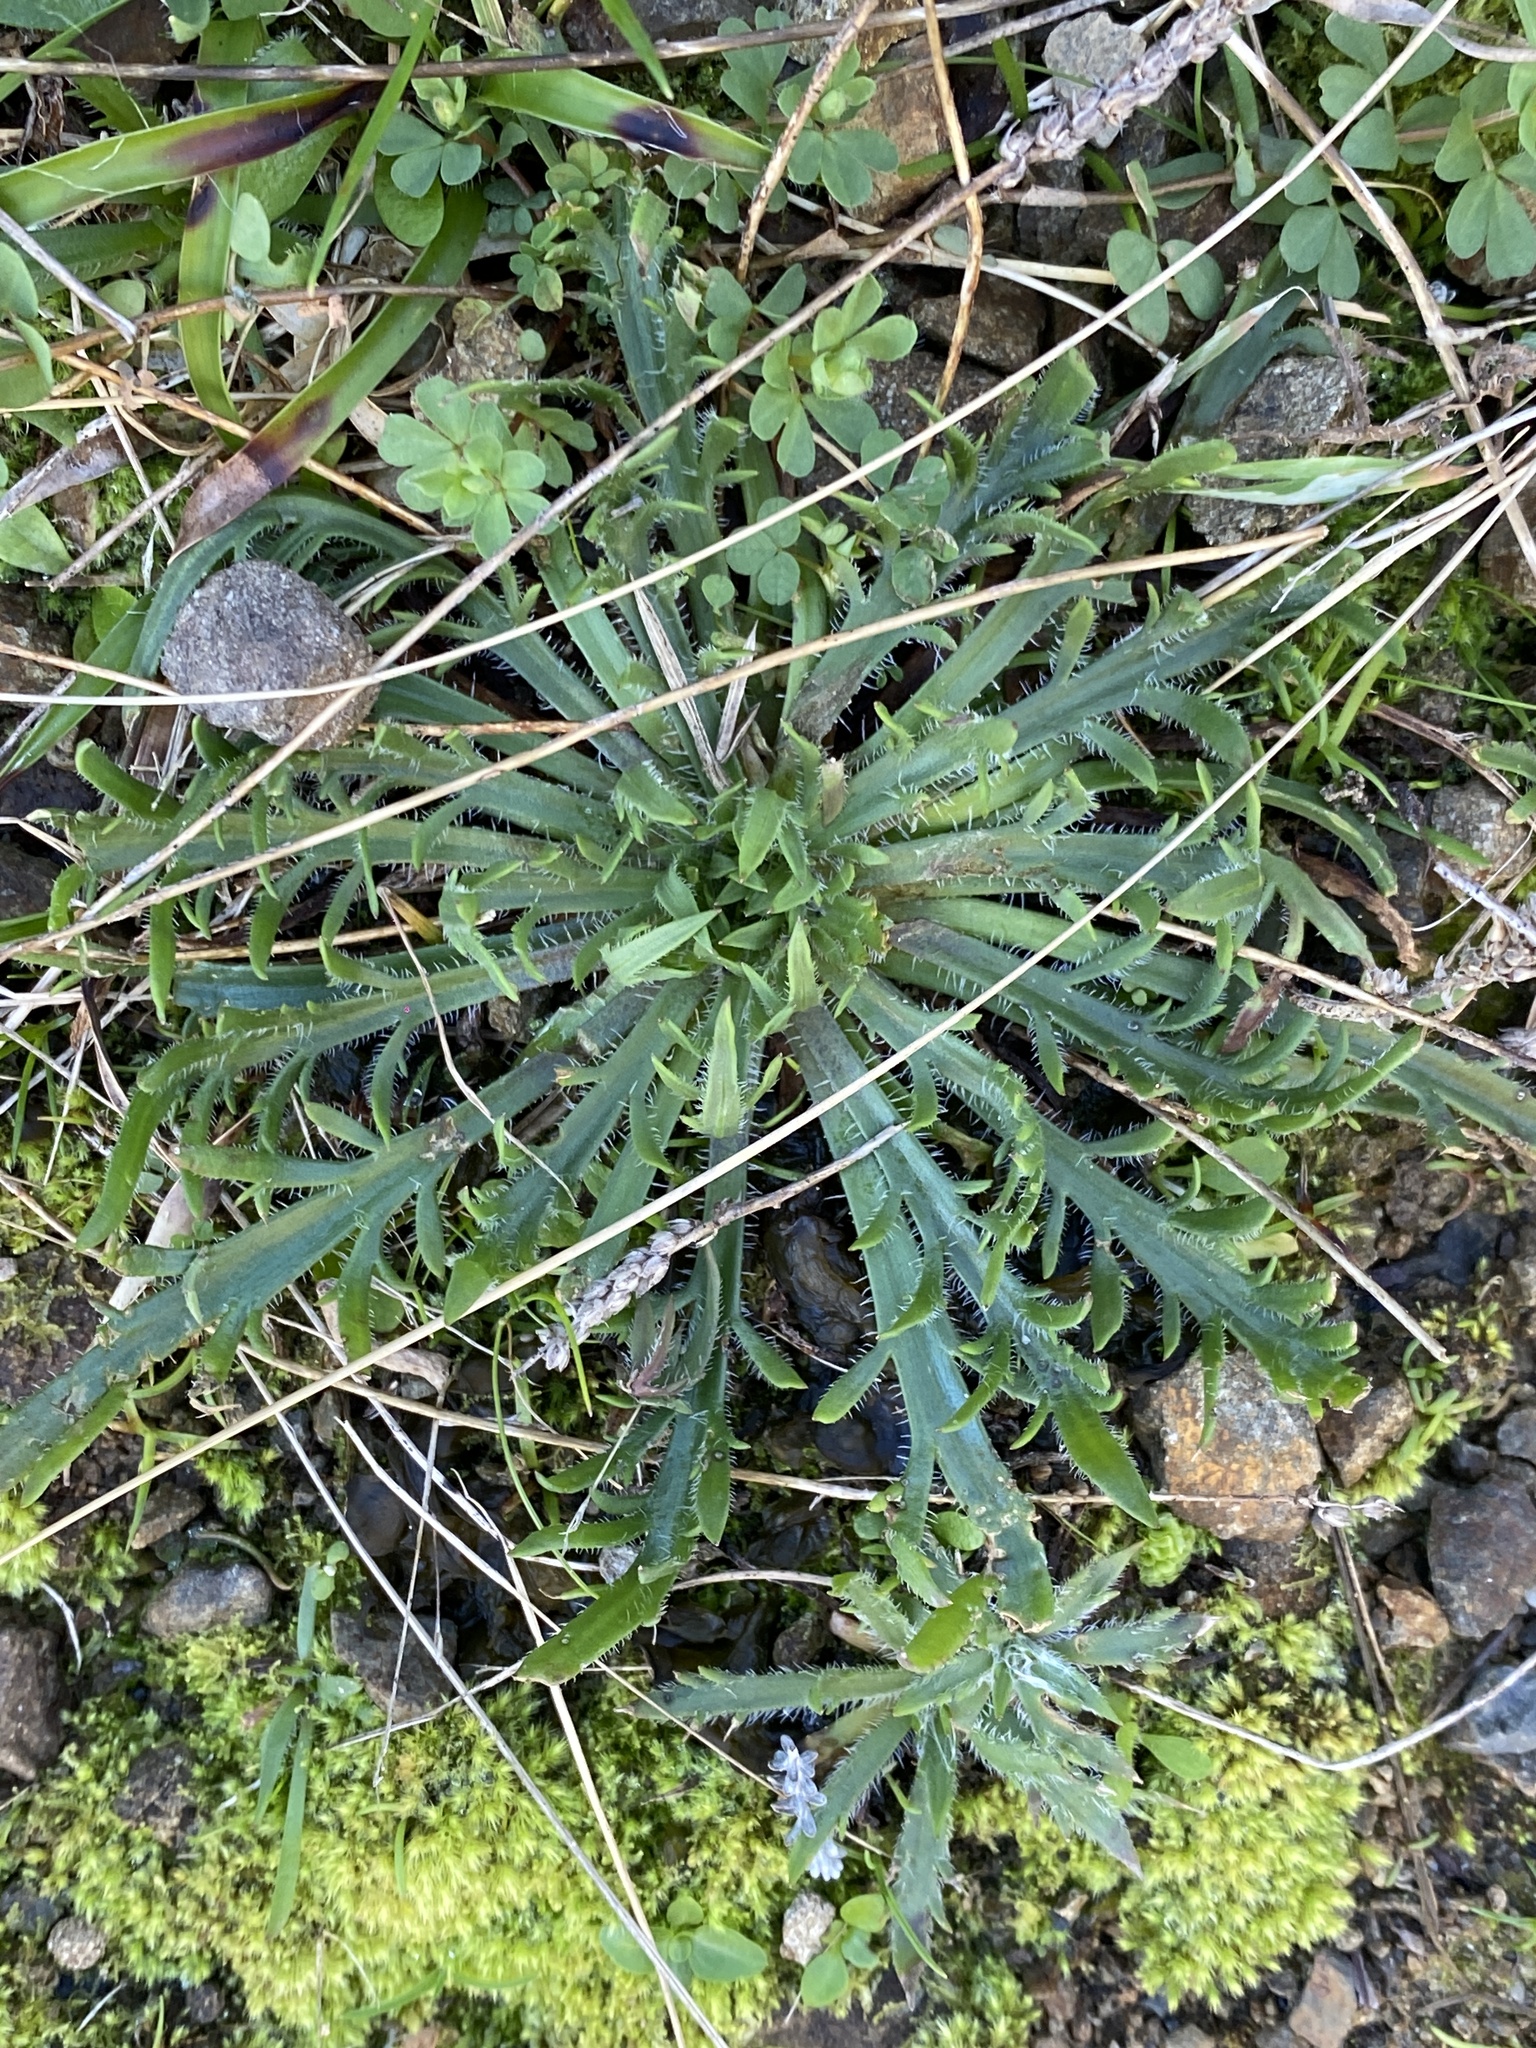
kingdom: Plantae
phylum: Tracheophyta
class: Magnoliopsida
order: Lamiales
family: Plantaginaceae
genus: Plantago
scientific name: Plantago coronopus
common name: Buck's-horn plantain
